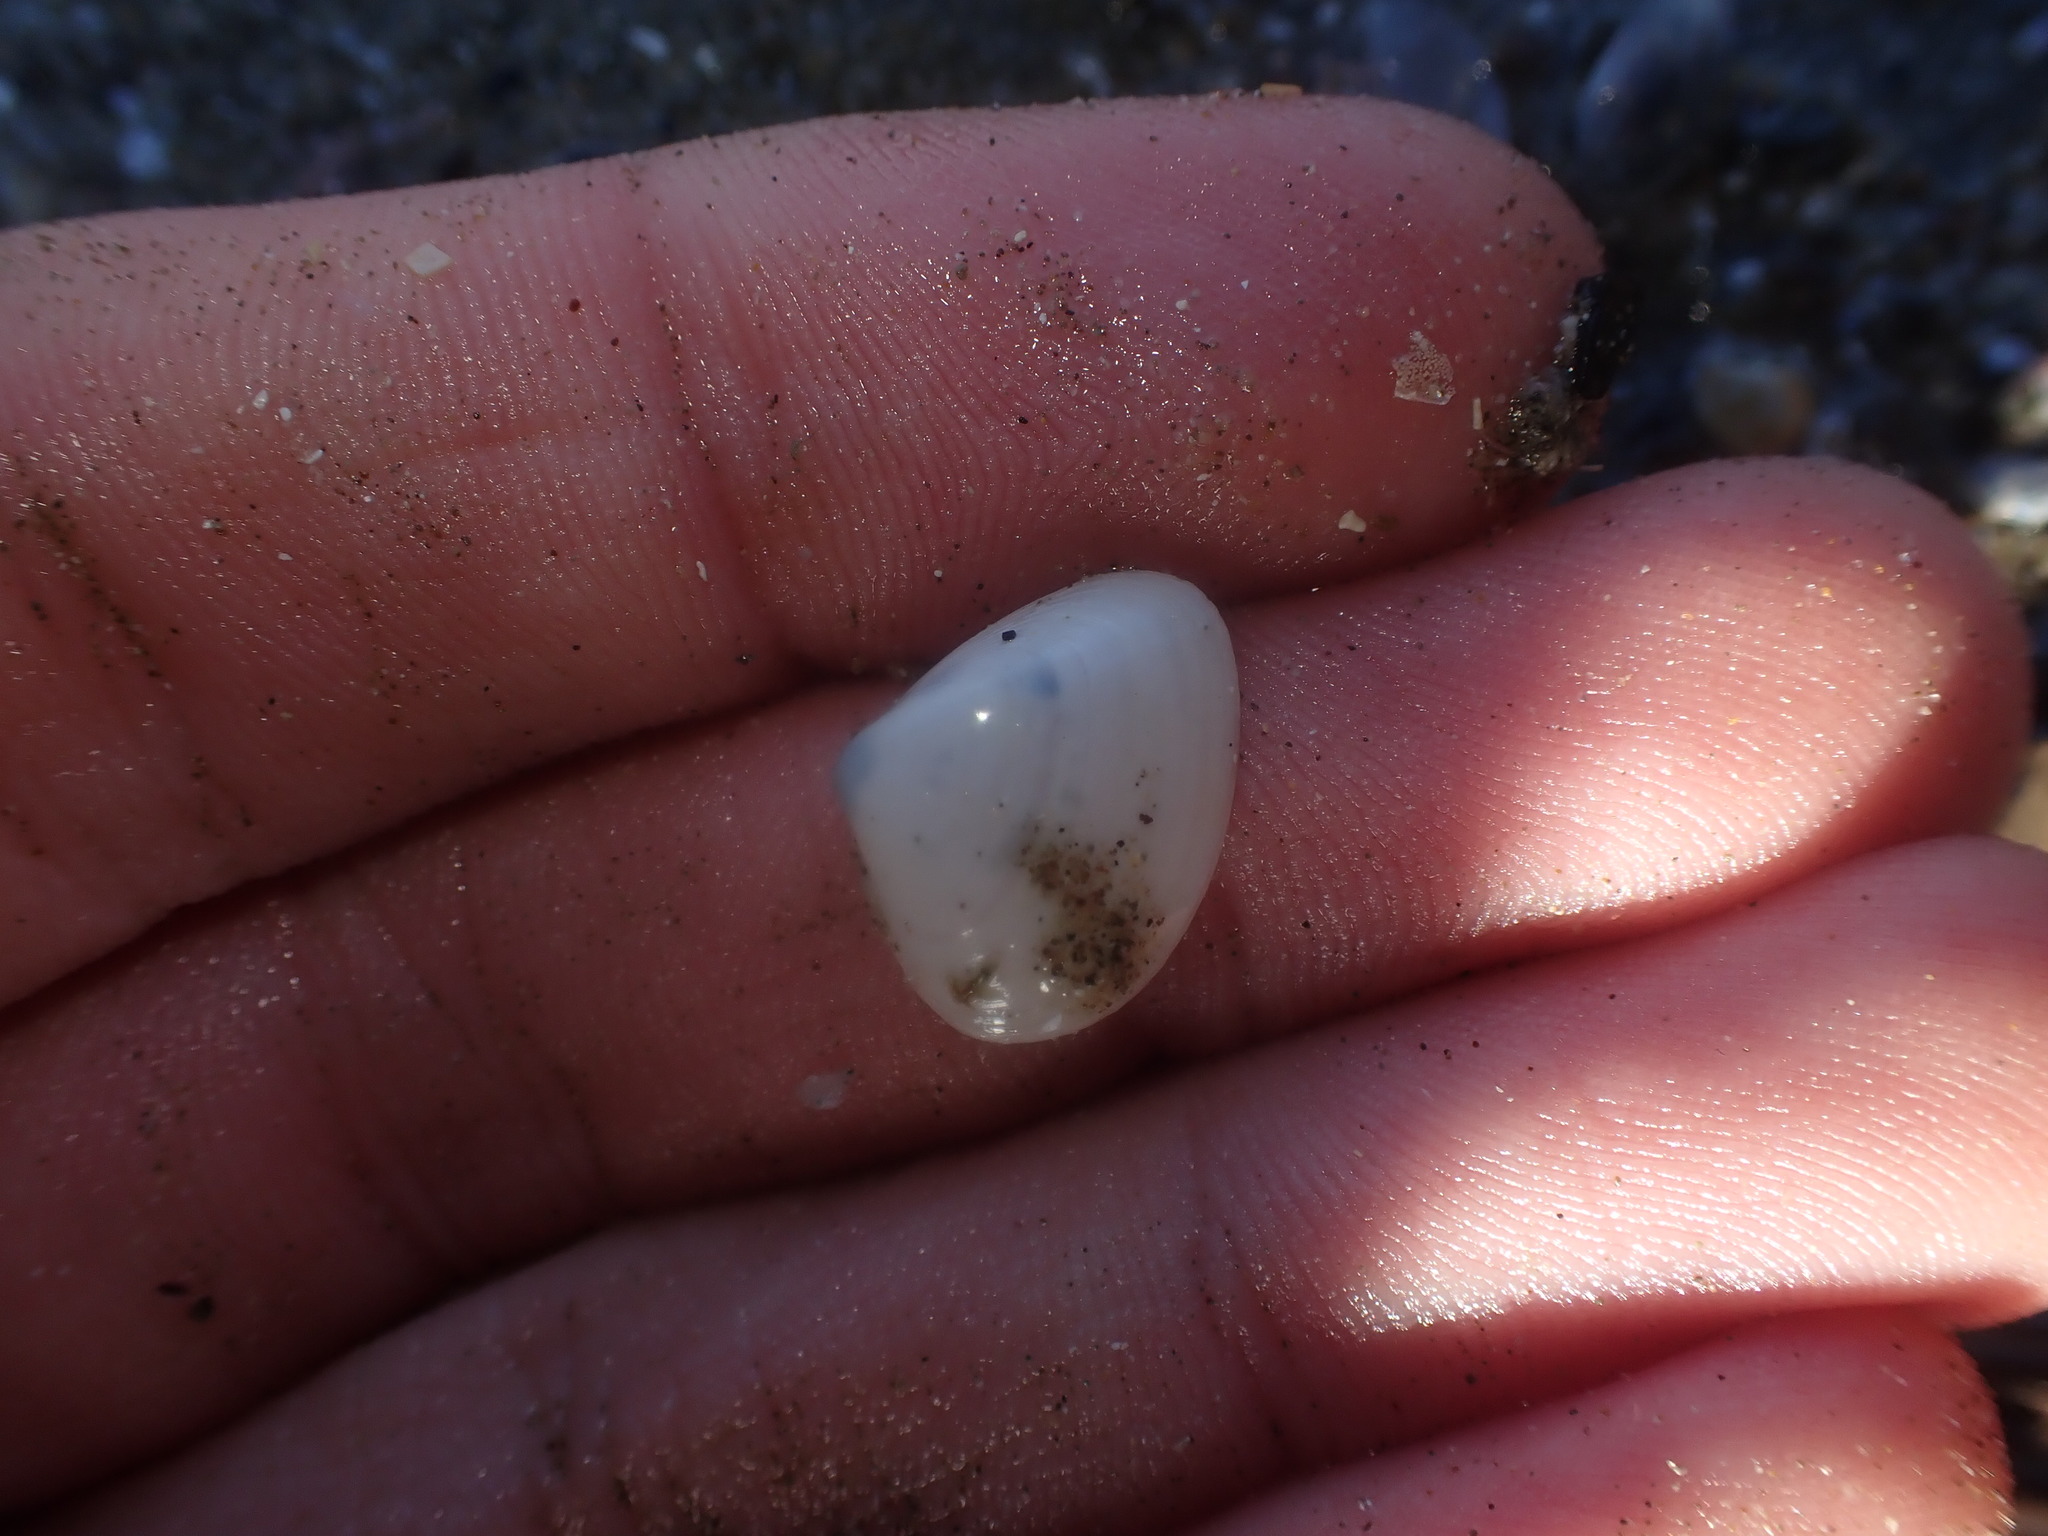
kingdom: Animalia
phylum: Mollusca
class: Bivalvia
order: Venerida
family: Mactridae
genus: Maorimactra
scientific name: Maorimactra ordinaria
